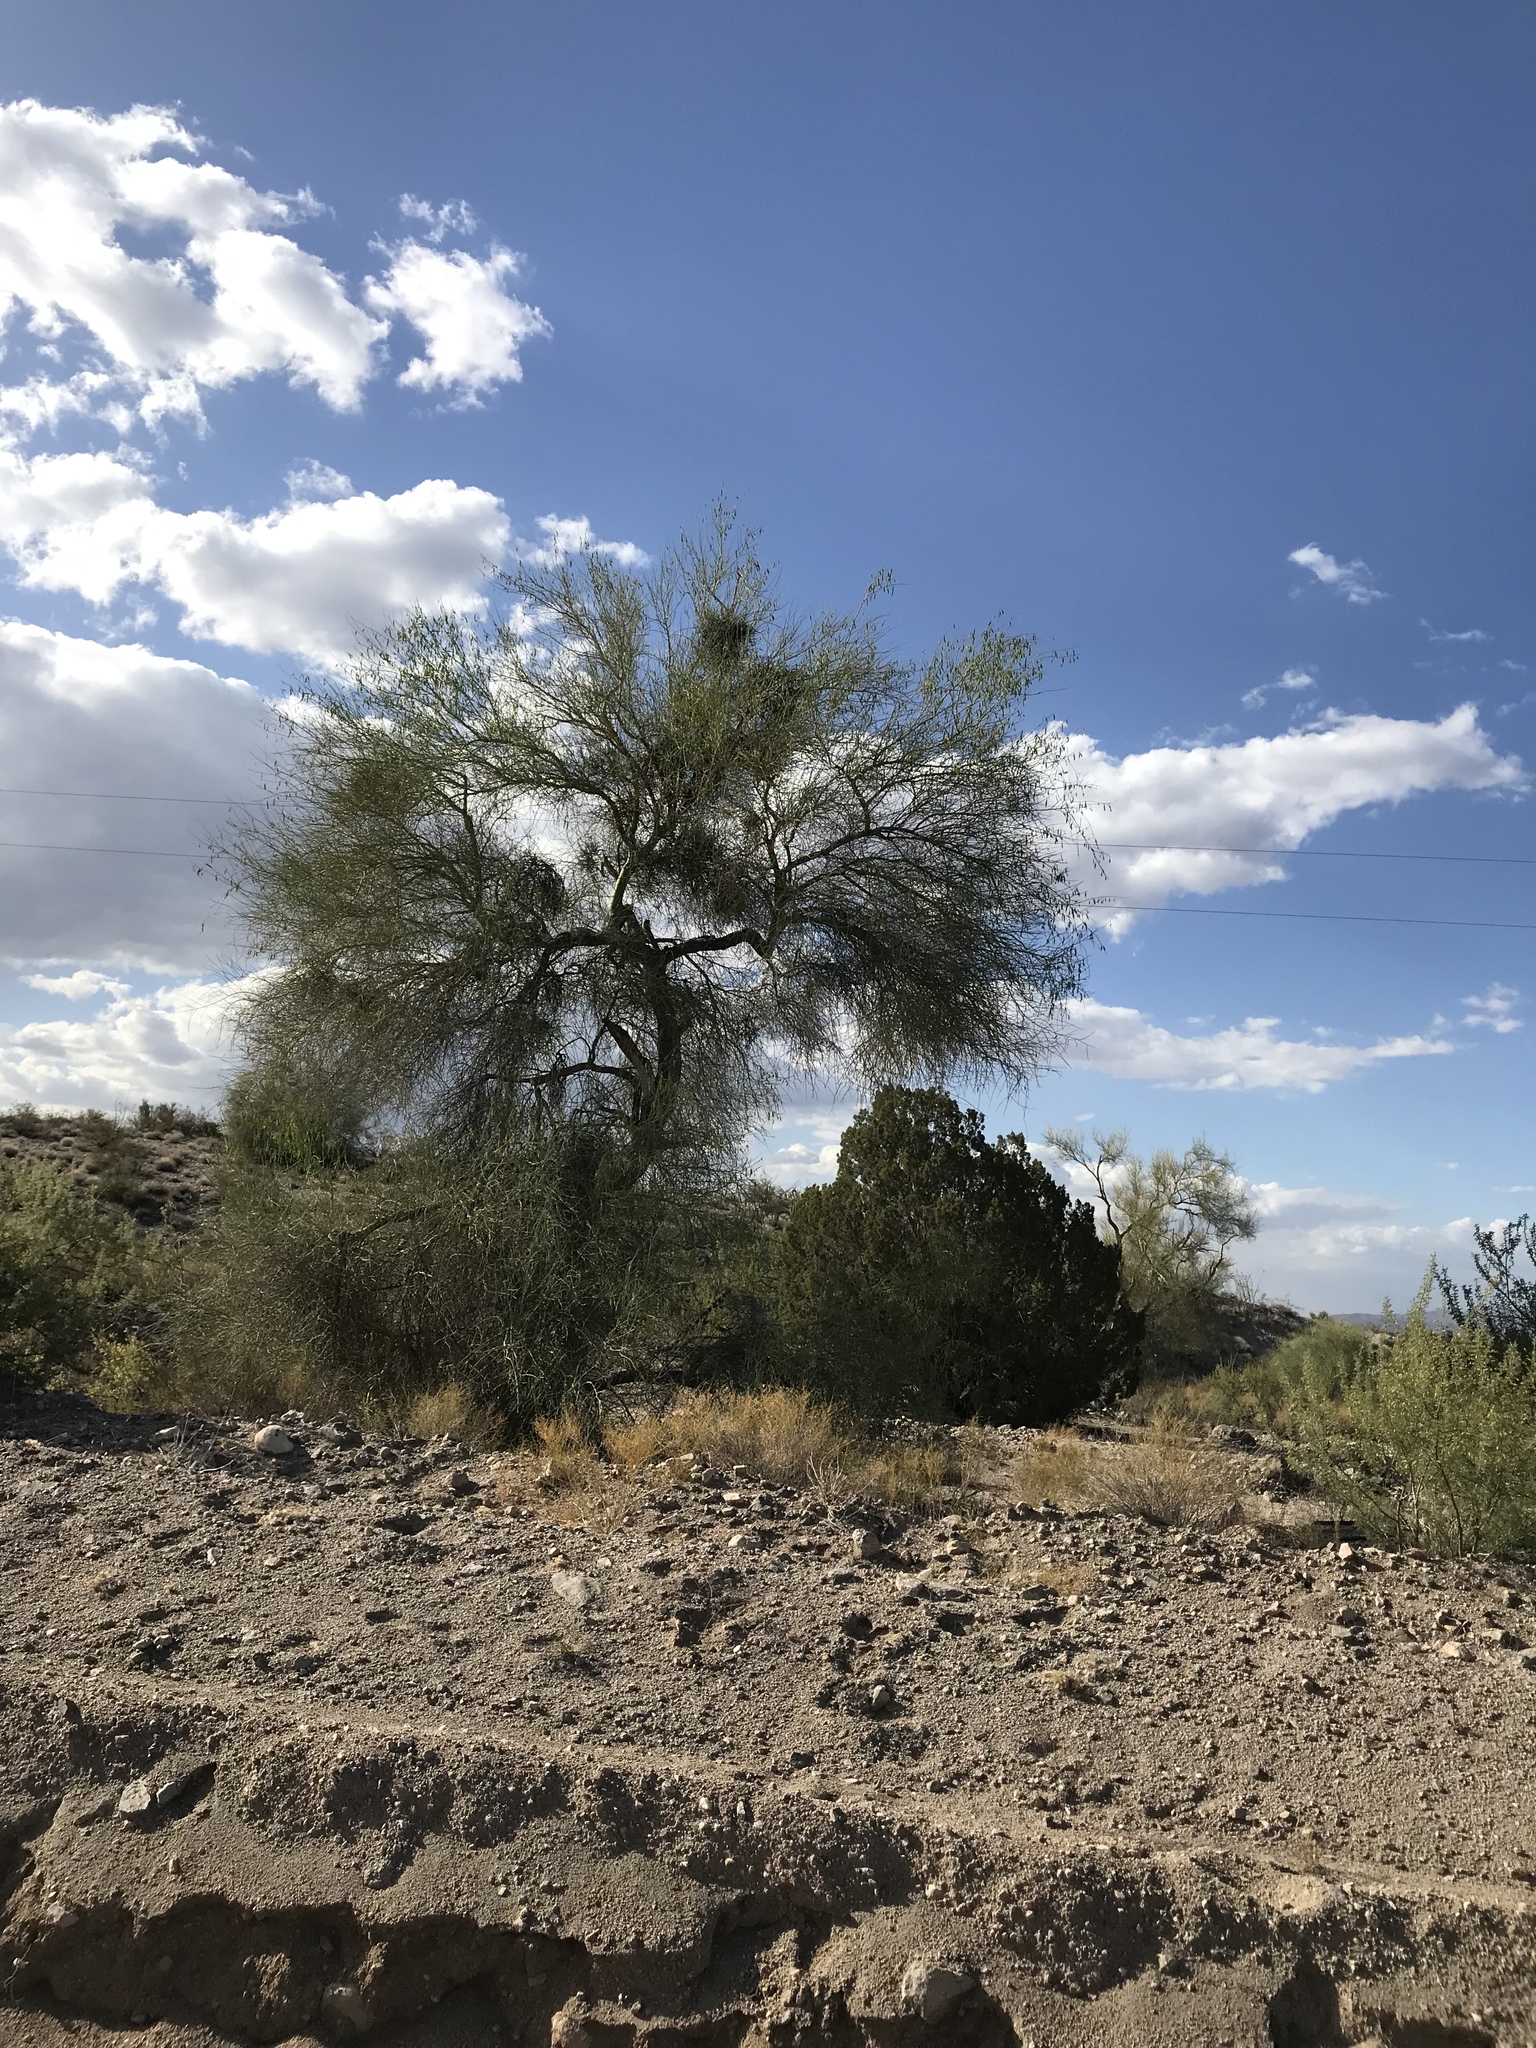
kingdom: Plantae
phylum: Tracheophyta
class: Magnoliopsida
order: Fabales
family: Fabaceae
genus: Parkinsonia
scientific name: Parkinsonia florida
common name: Blue paloverde
